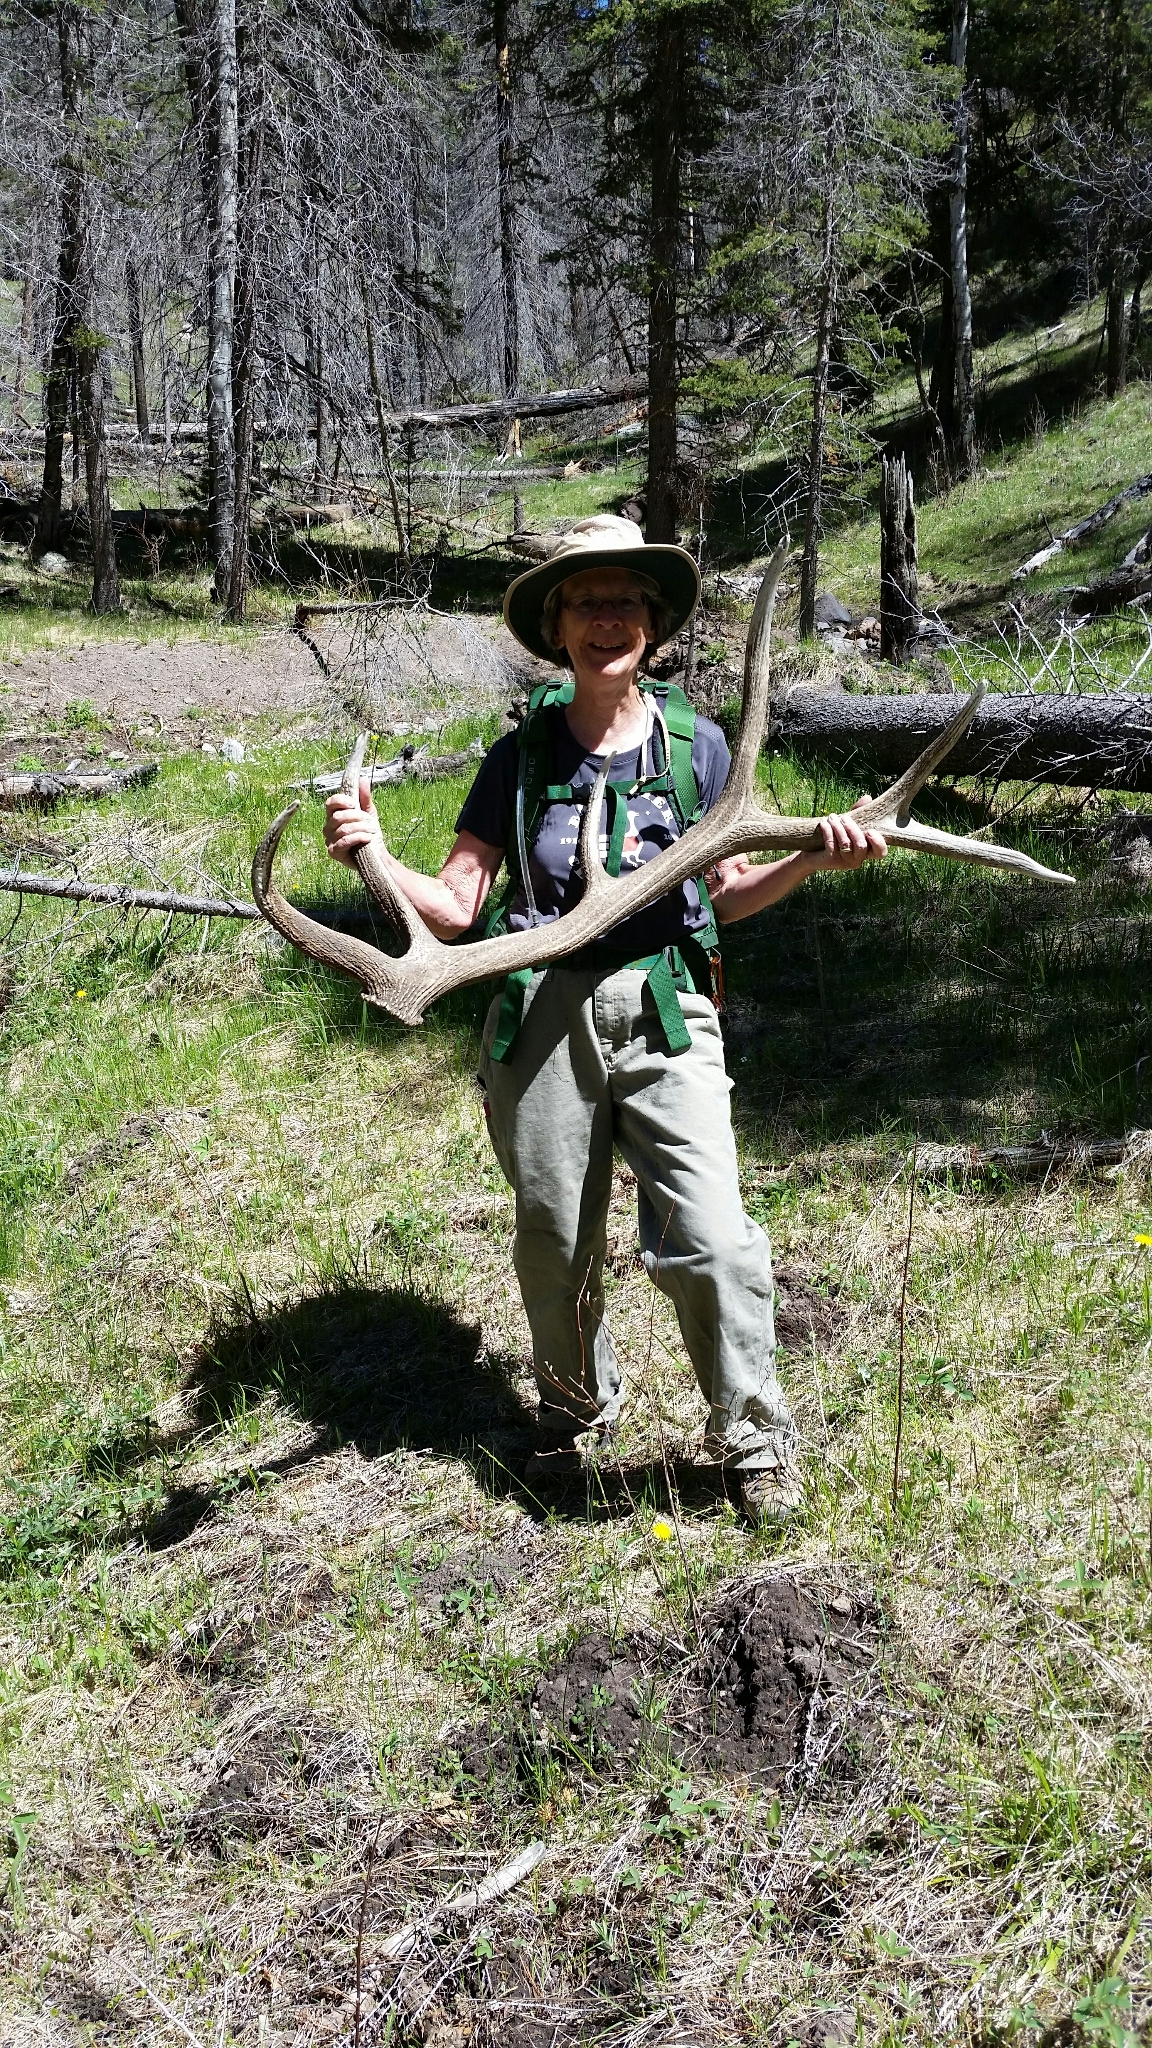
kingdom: Animalia
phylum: Chordata
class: Mammalia
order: Artiodactyla
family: Cervidae
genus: Cervus
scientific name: Cervus elaphus
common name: Red deer
